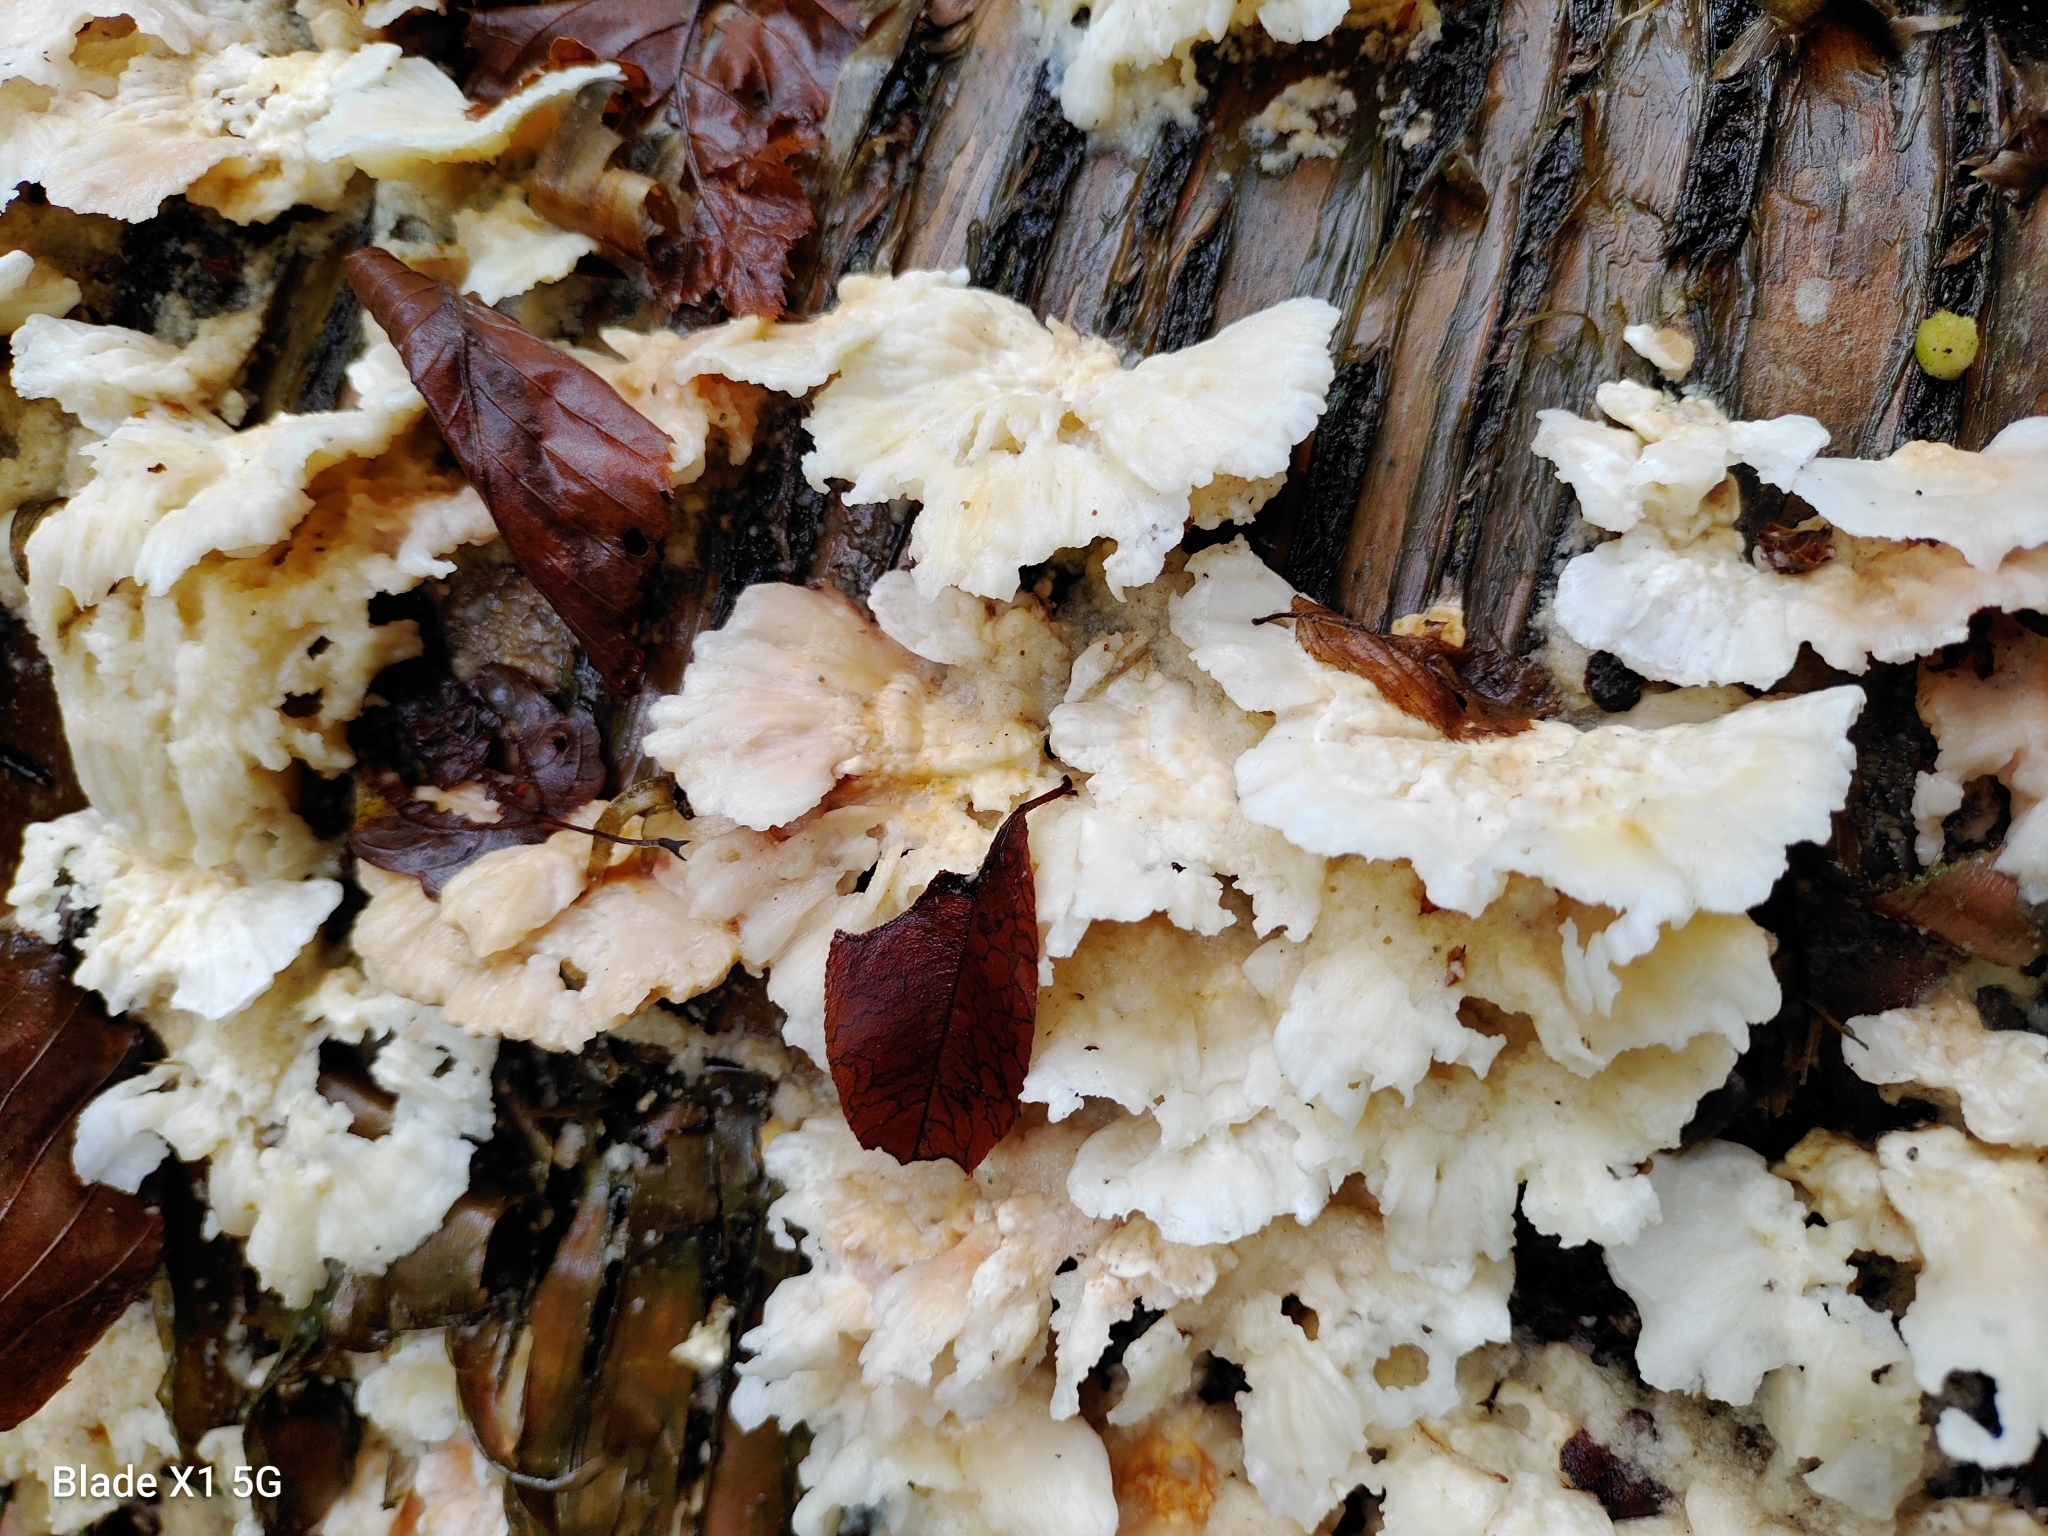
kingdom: Fungi
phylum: Basidiomycota
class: Agaricomycetes
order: Polyporales
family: Polyporaceae
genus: Trametes
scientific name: Trametes pubescens
